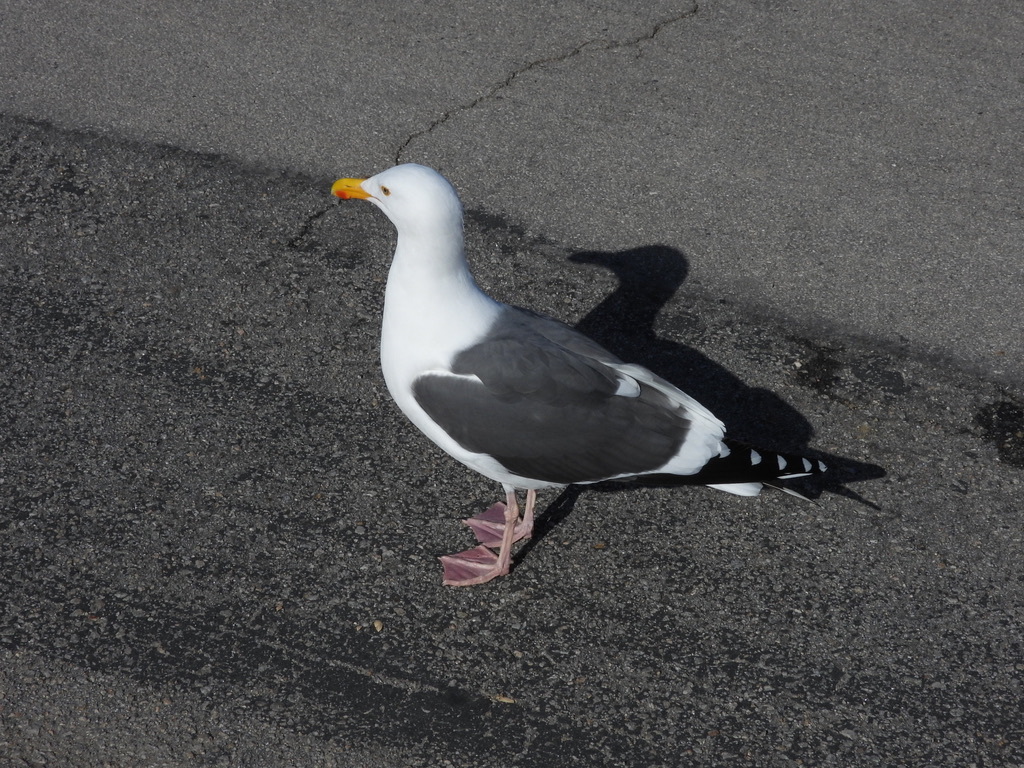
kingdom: Animalia
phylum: Chordata
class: Aves
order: Charadriiformes
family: Laridae
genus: Larus
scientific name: Larus occidentalis
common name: Western gull
